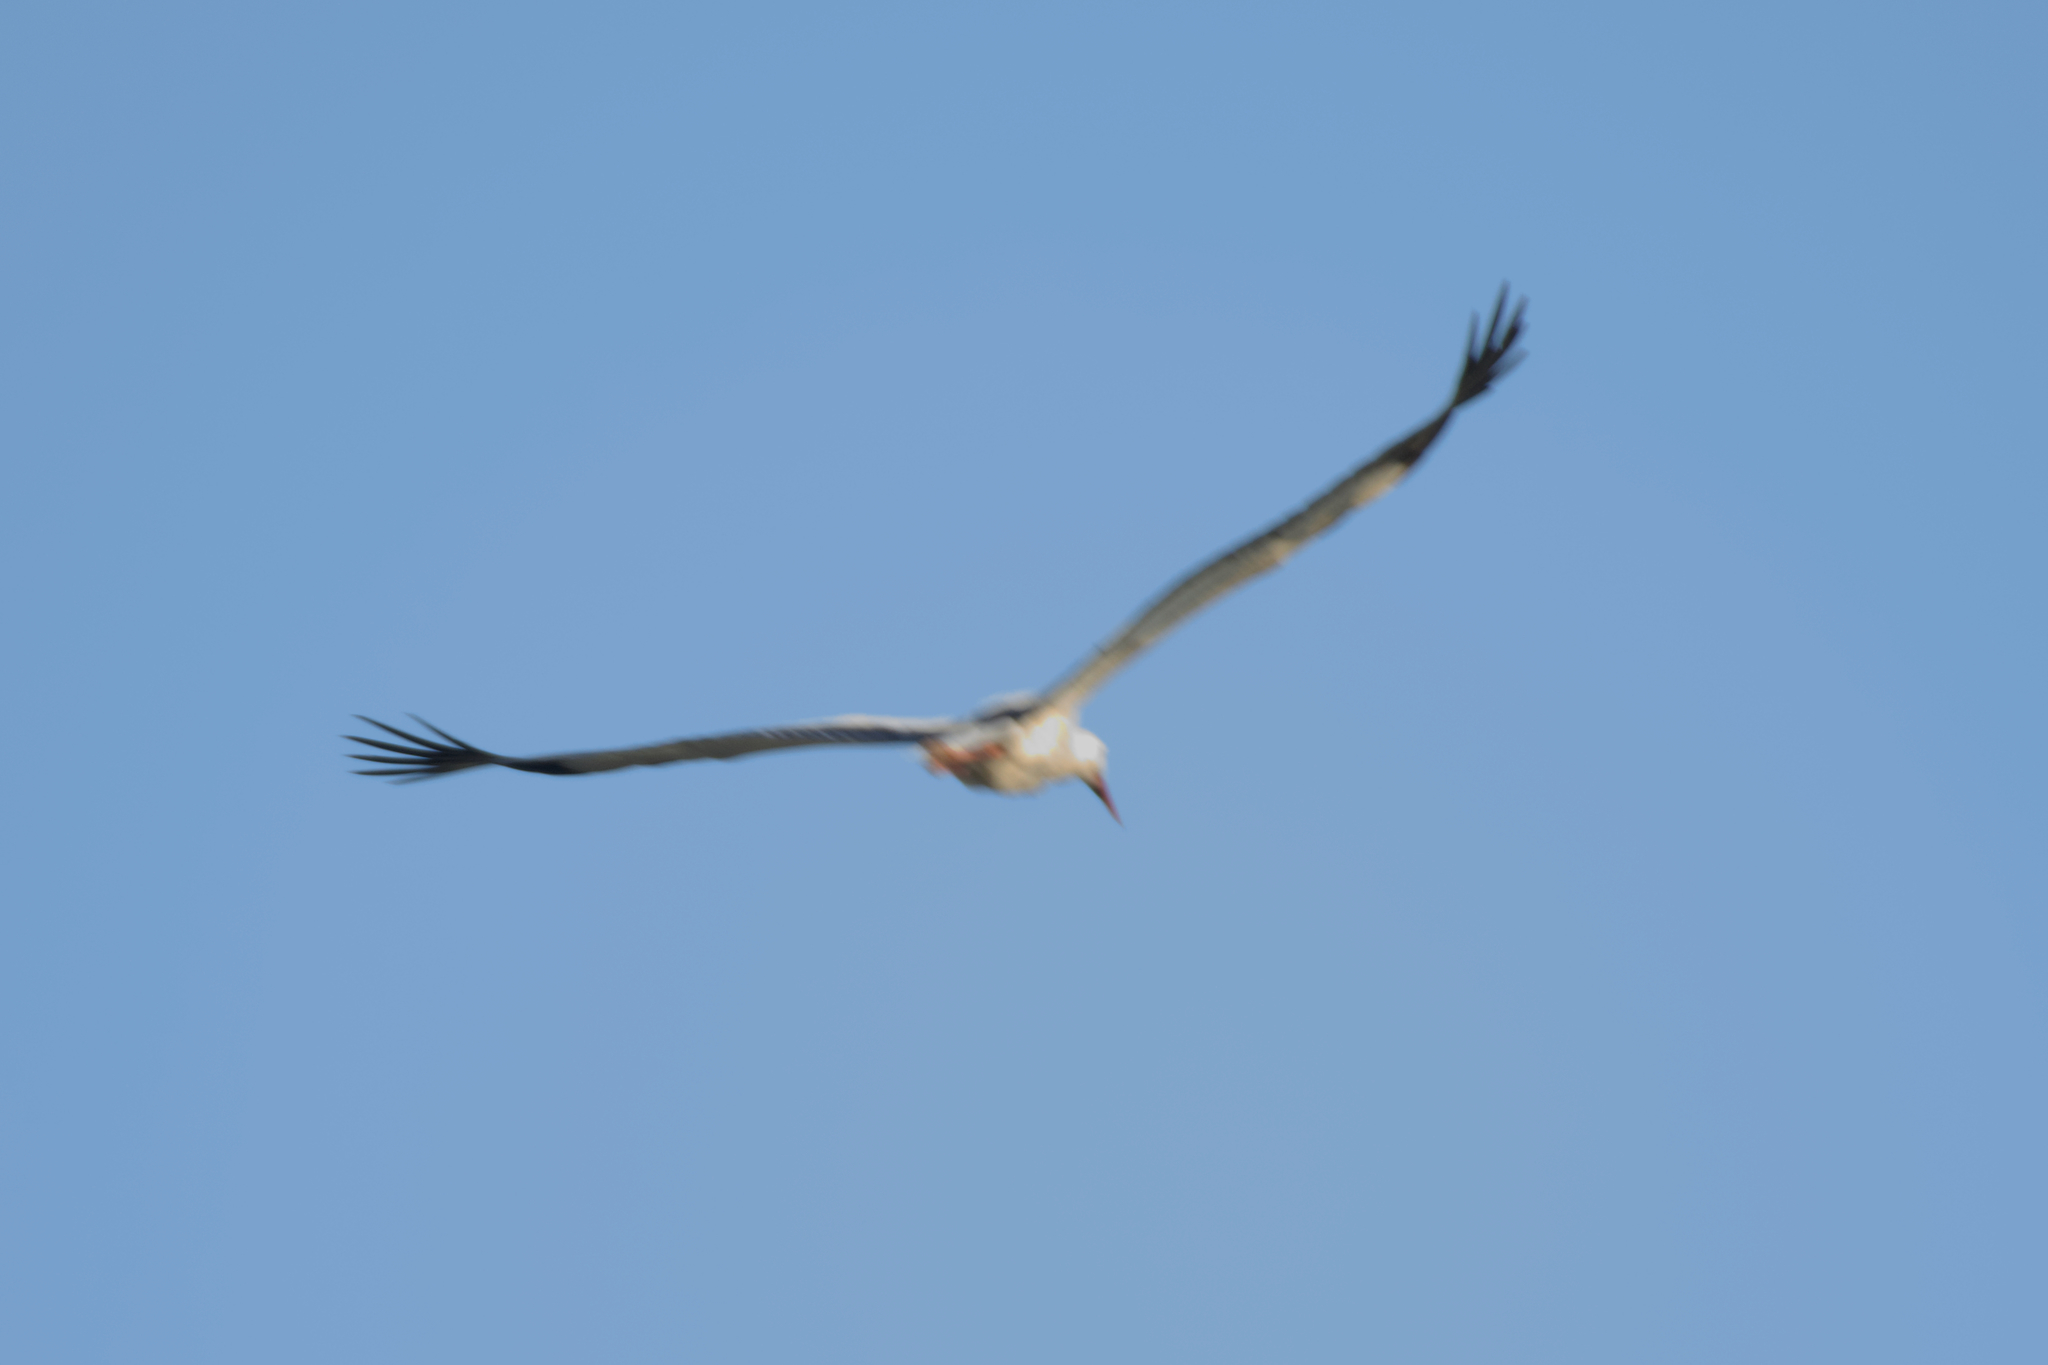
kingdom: Animalia
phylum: Chordata
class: Aves
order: Ciconiiformes
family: Ciconiidae
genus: Ciconia
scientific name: Ciconia ciconia
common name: White stork
